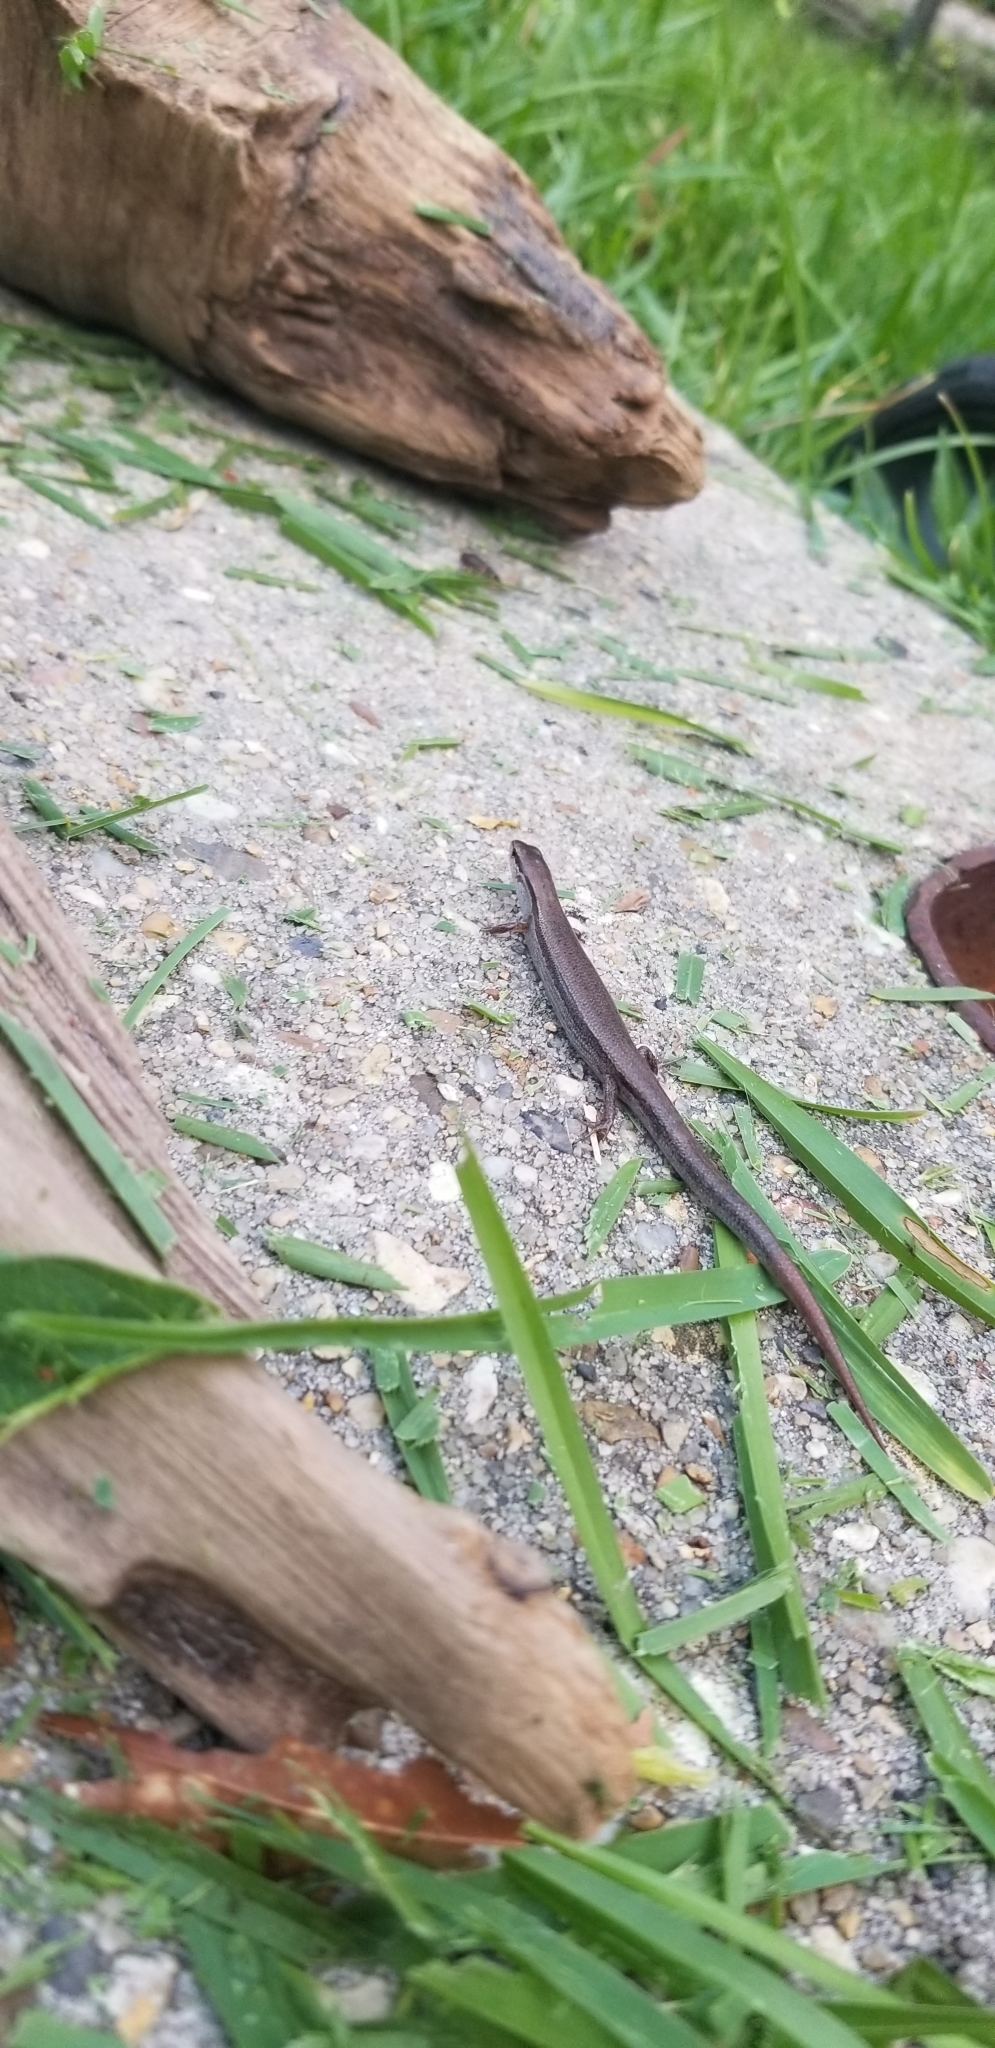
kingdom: Animalia
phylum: Chordata
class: Squamata
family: Scincidae
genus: Scincella
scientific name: Scincella lateralis
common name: Ground skink
